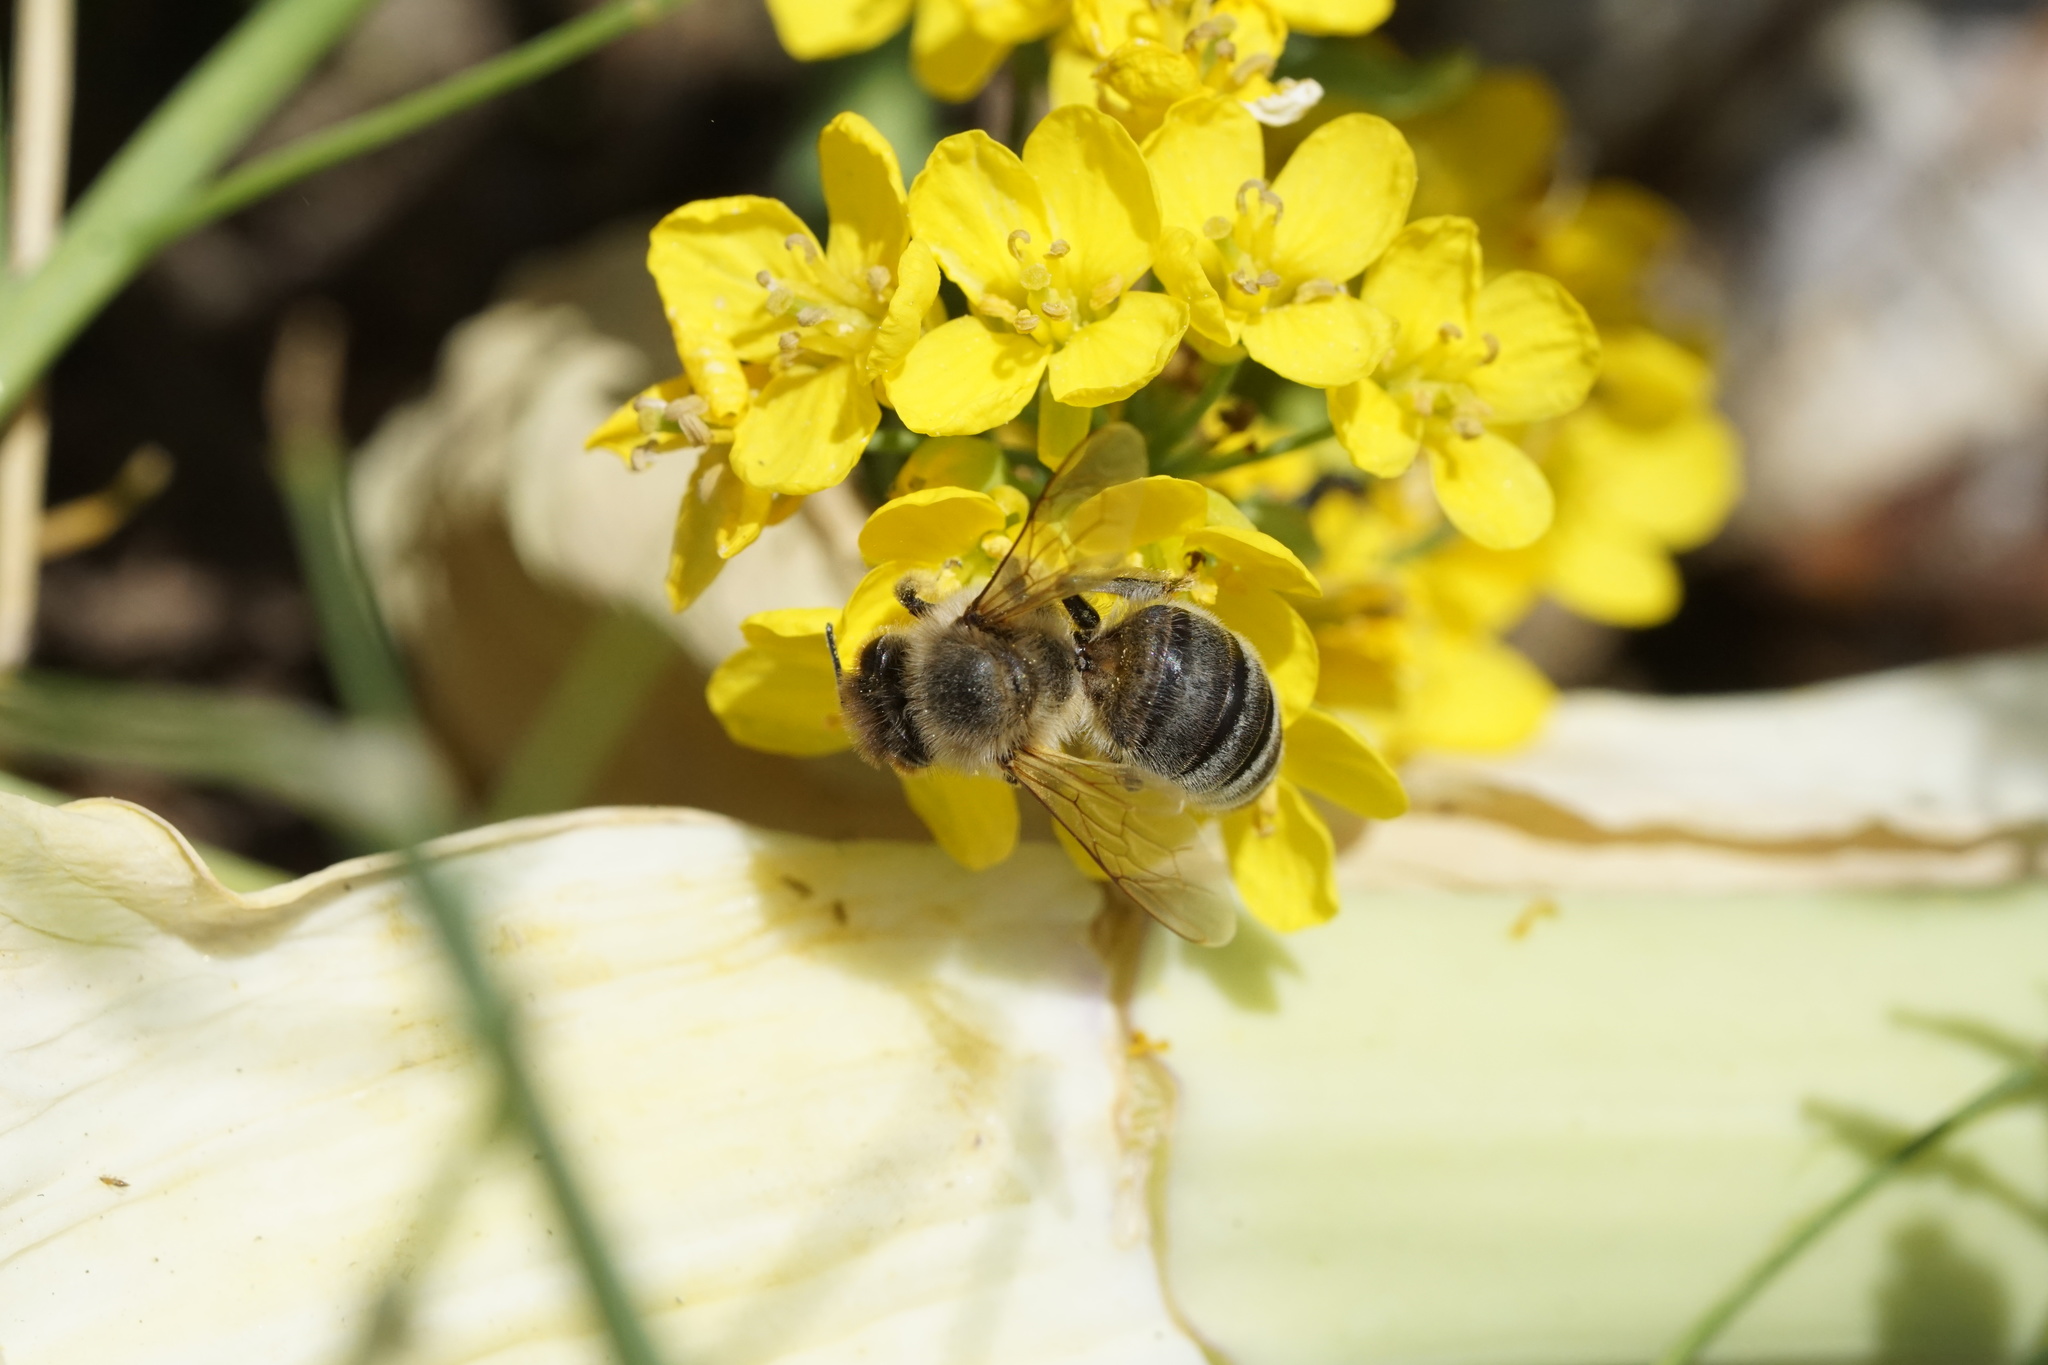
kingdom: Animalia
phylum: Arthropoda
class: Insecta
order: Hymenoptera
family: Apidae
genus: Apis
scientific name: Apis mellifera
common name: Honey bee
